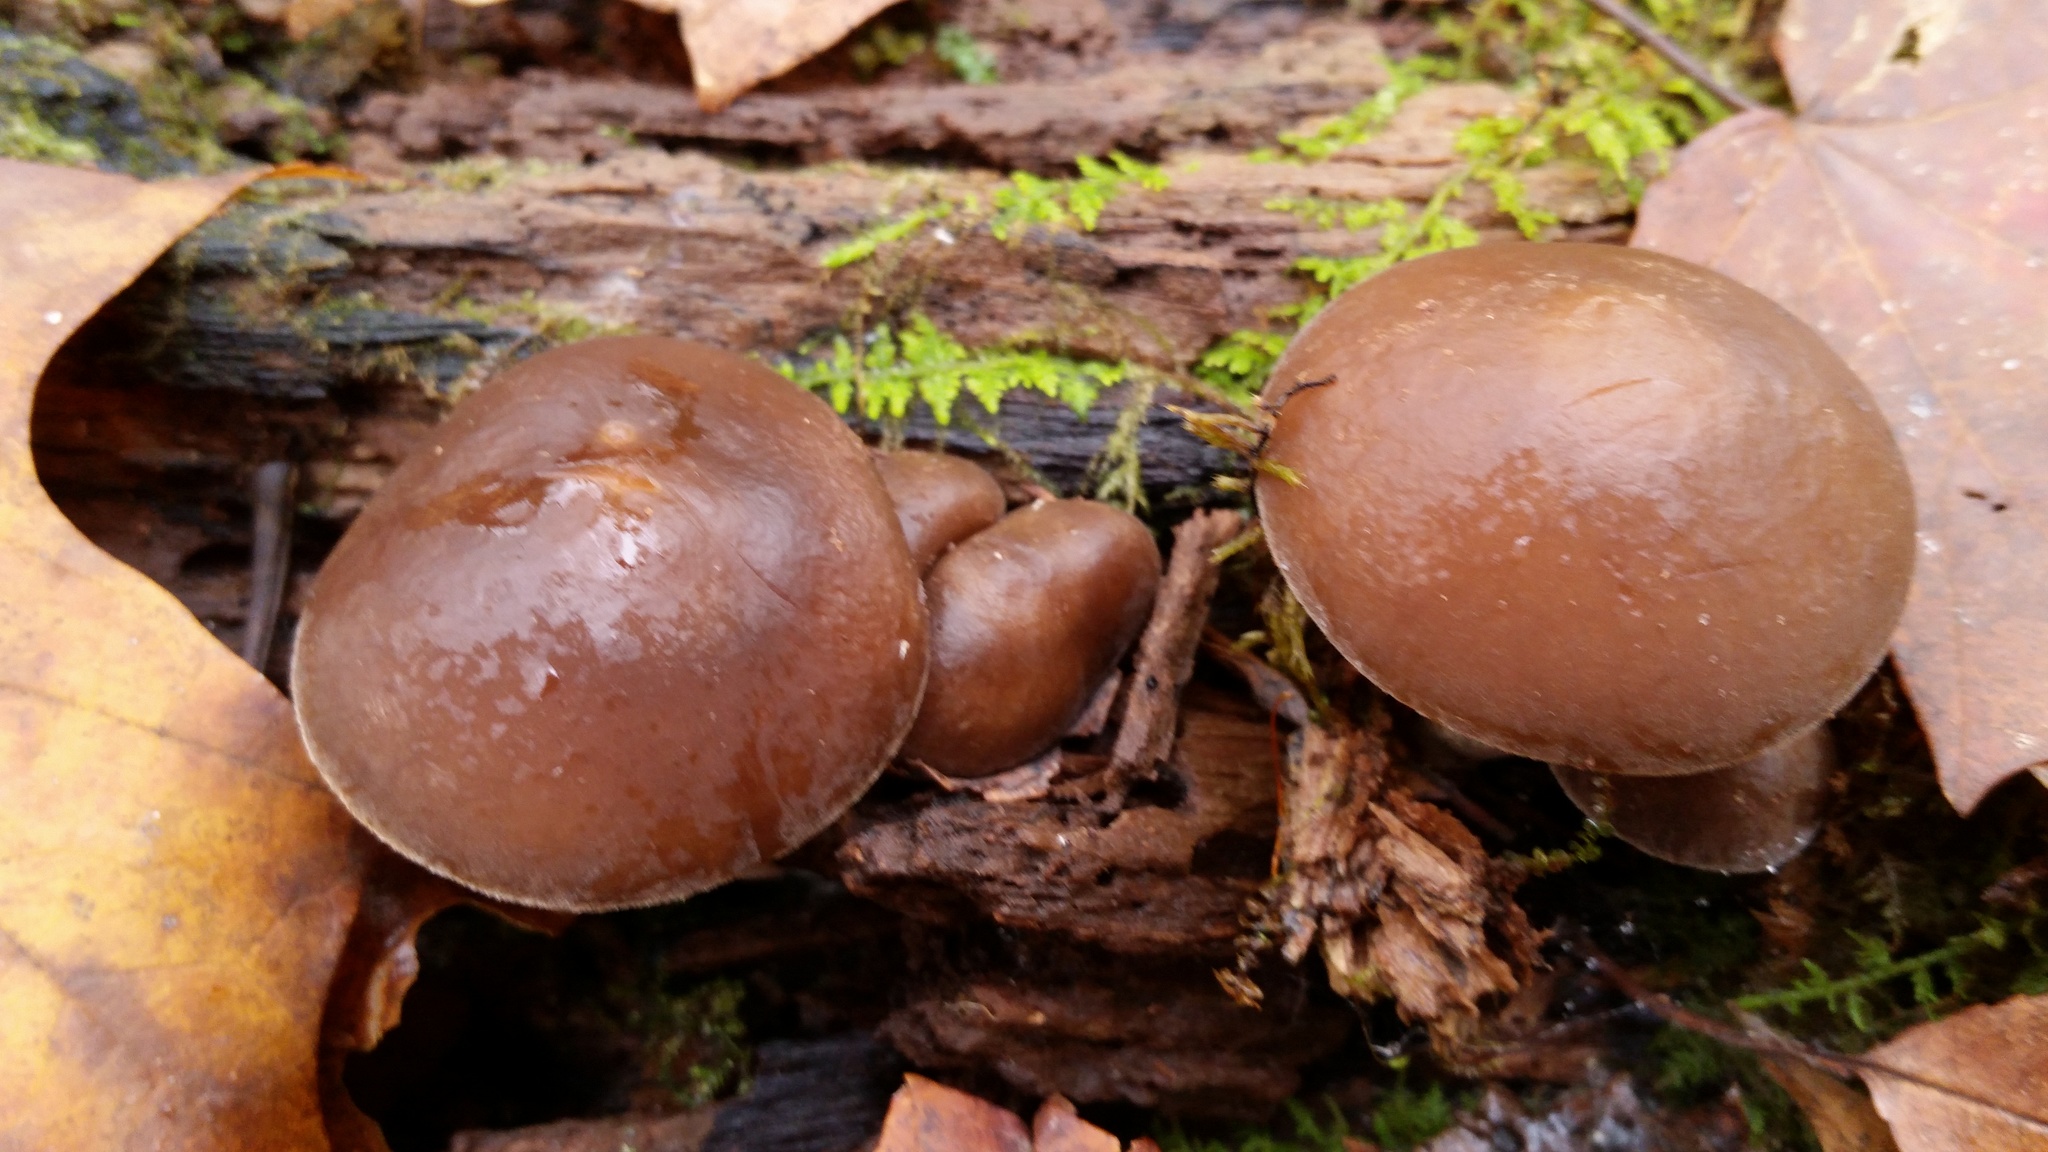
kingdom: Fungi
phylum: Basidiomycota
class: Agaricomycetes
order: Agaricales
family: Strophariaceae
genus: Agrocybe
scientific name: Agrocybe firma
